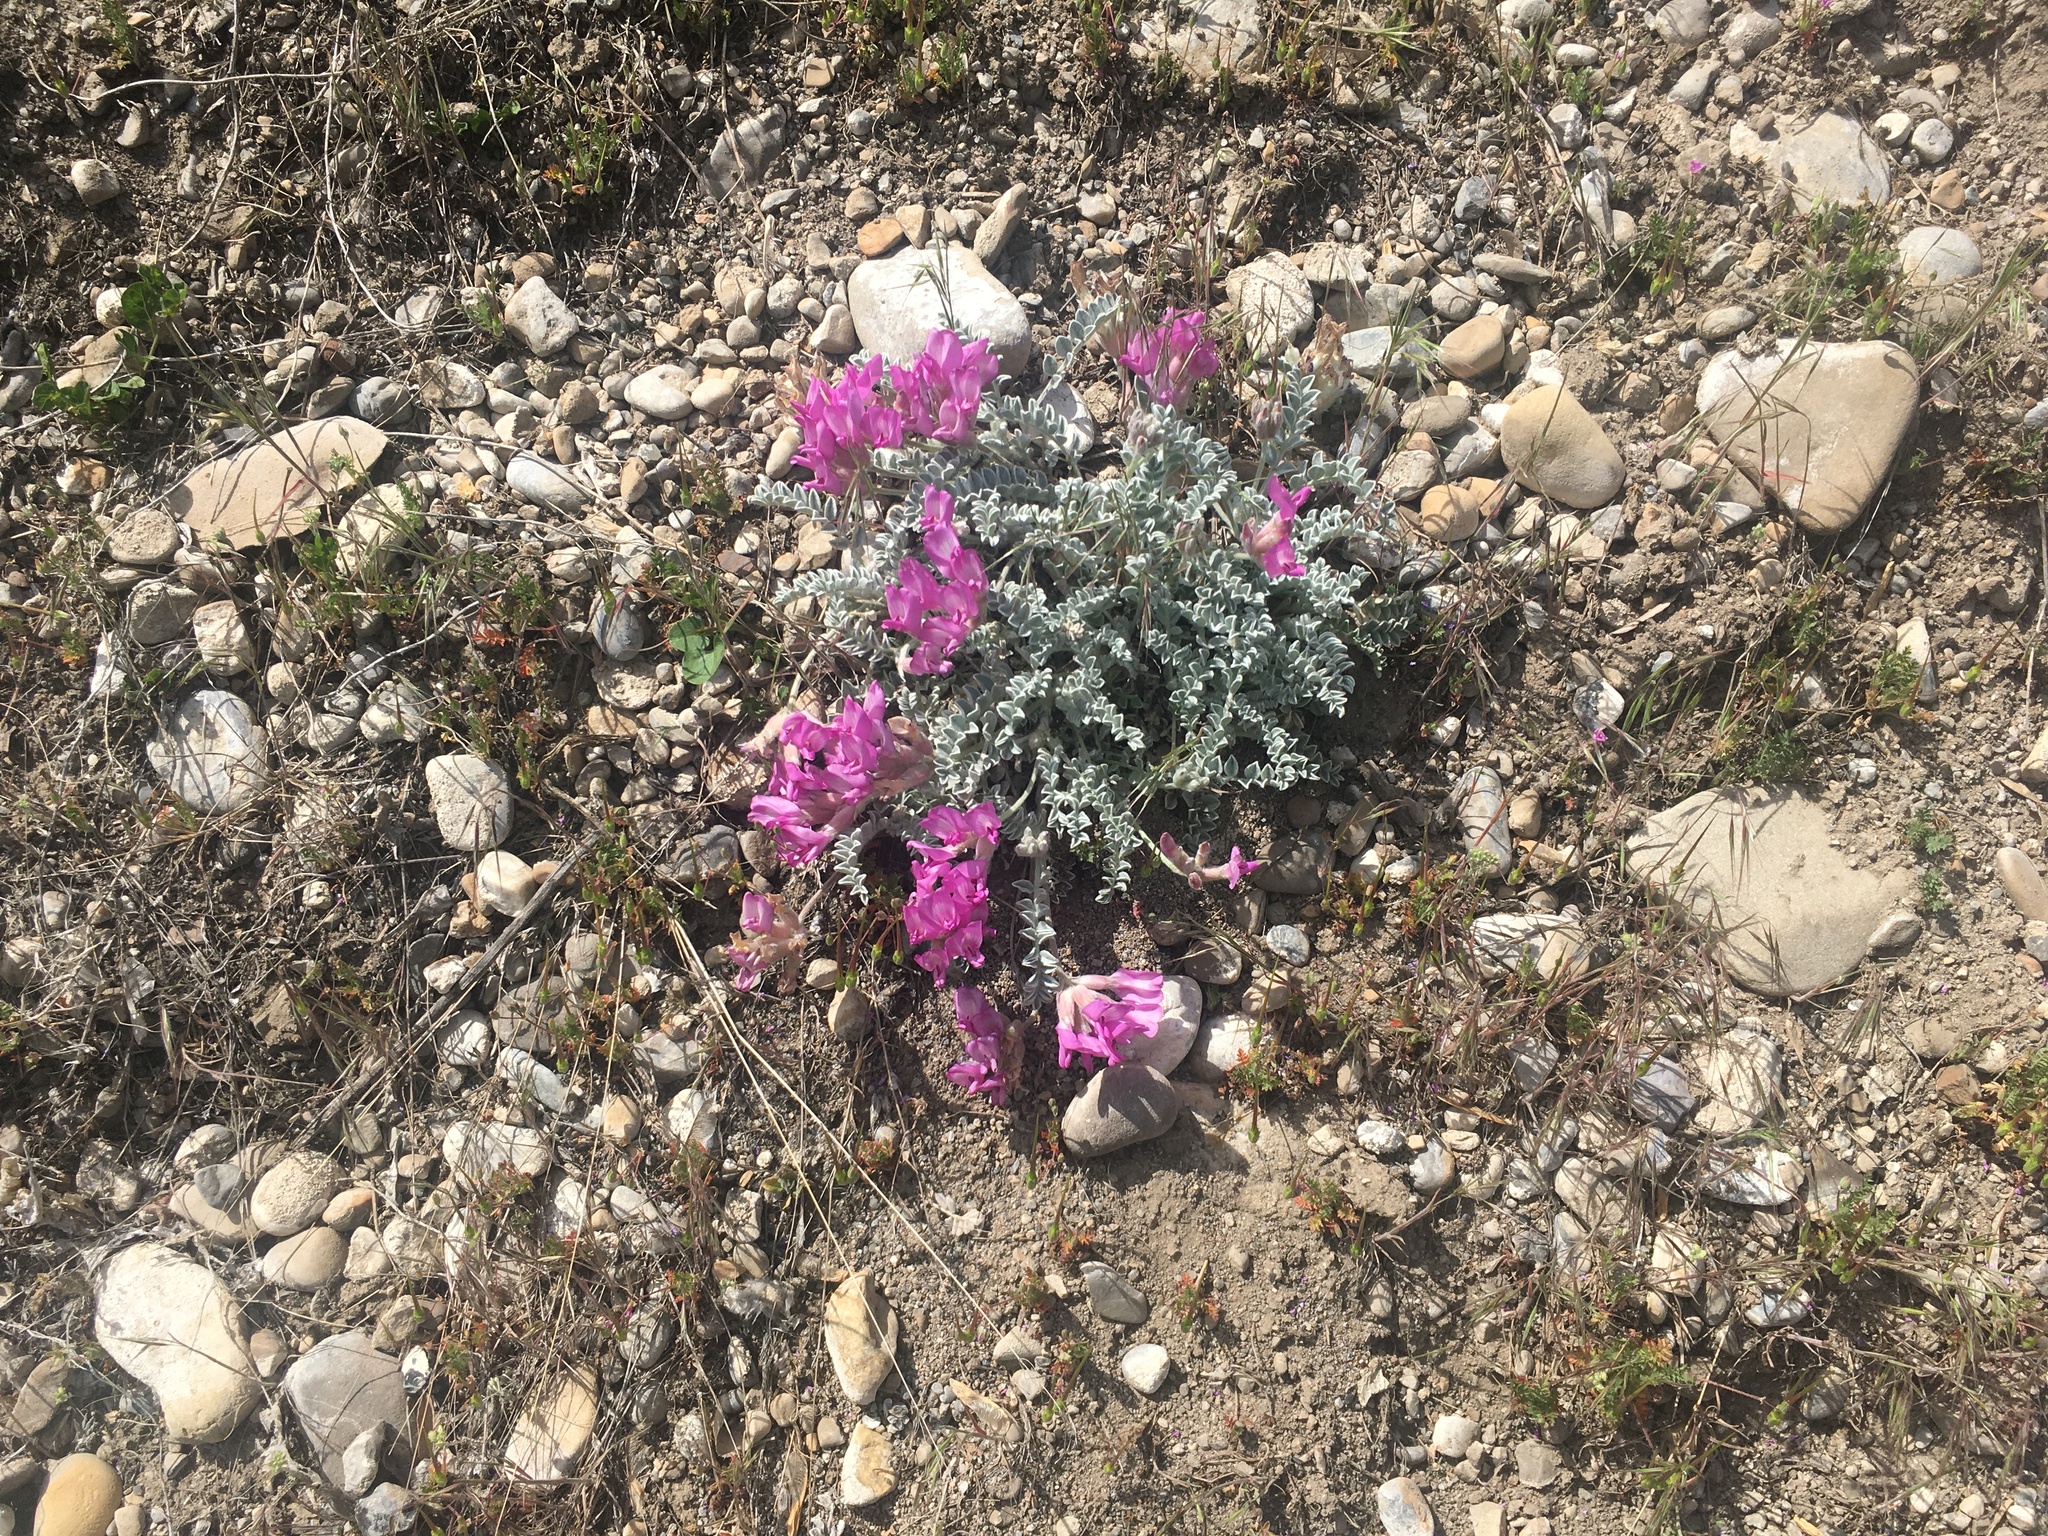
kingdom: Plantae
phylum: Tracheophyta
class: Magnoliopsida
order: Fabales
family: Fabaceae
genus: Astragalus
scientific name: Astragalus utahensis
